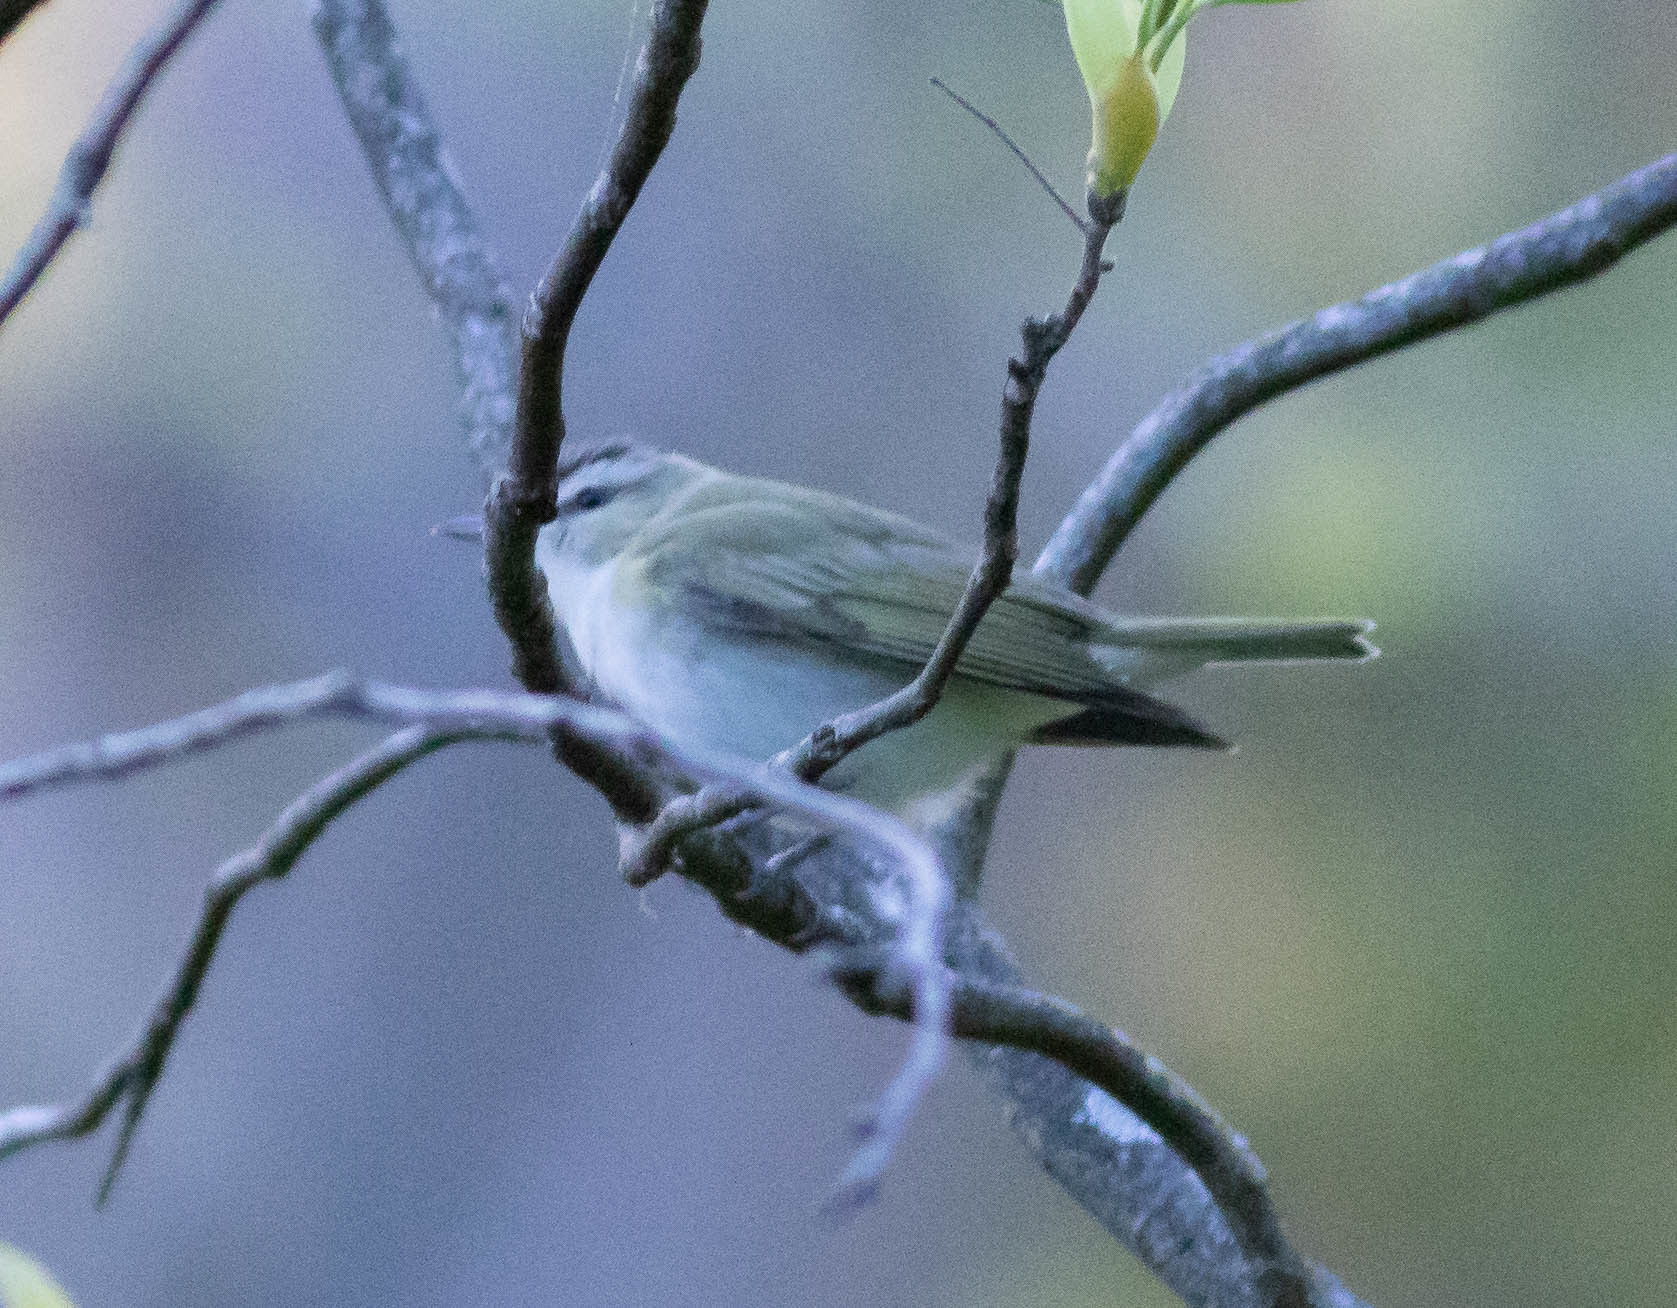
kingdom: Animalia
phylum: Chordata
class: Aves
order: Passeriformes
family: Vireonidae
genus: Vireo
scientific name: Vireo olivaceus
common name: Red-eyed vireo
